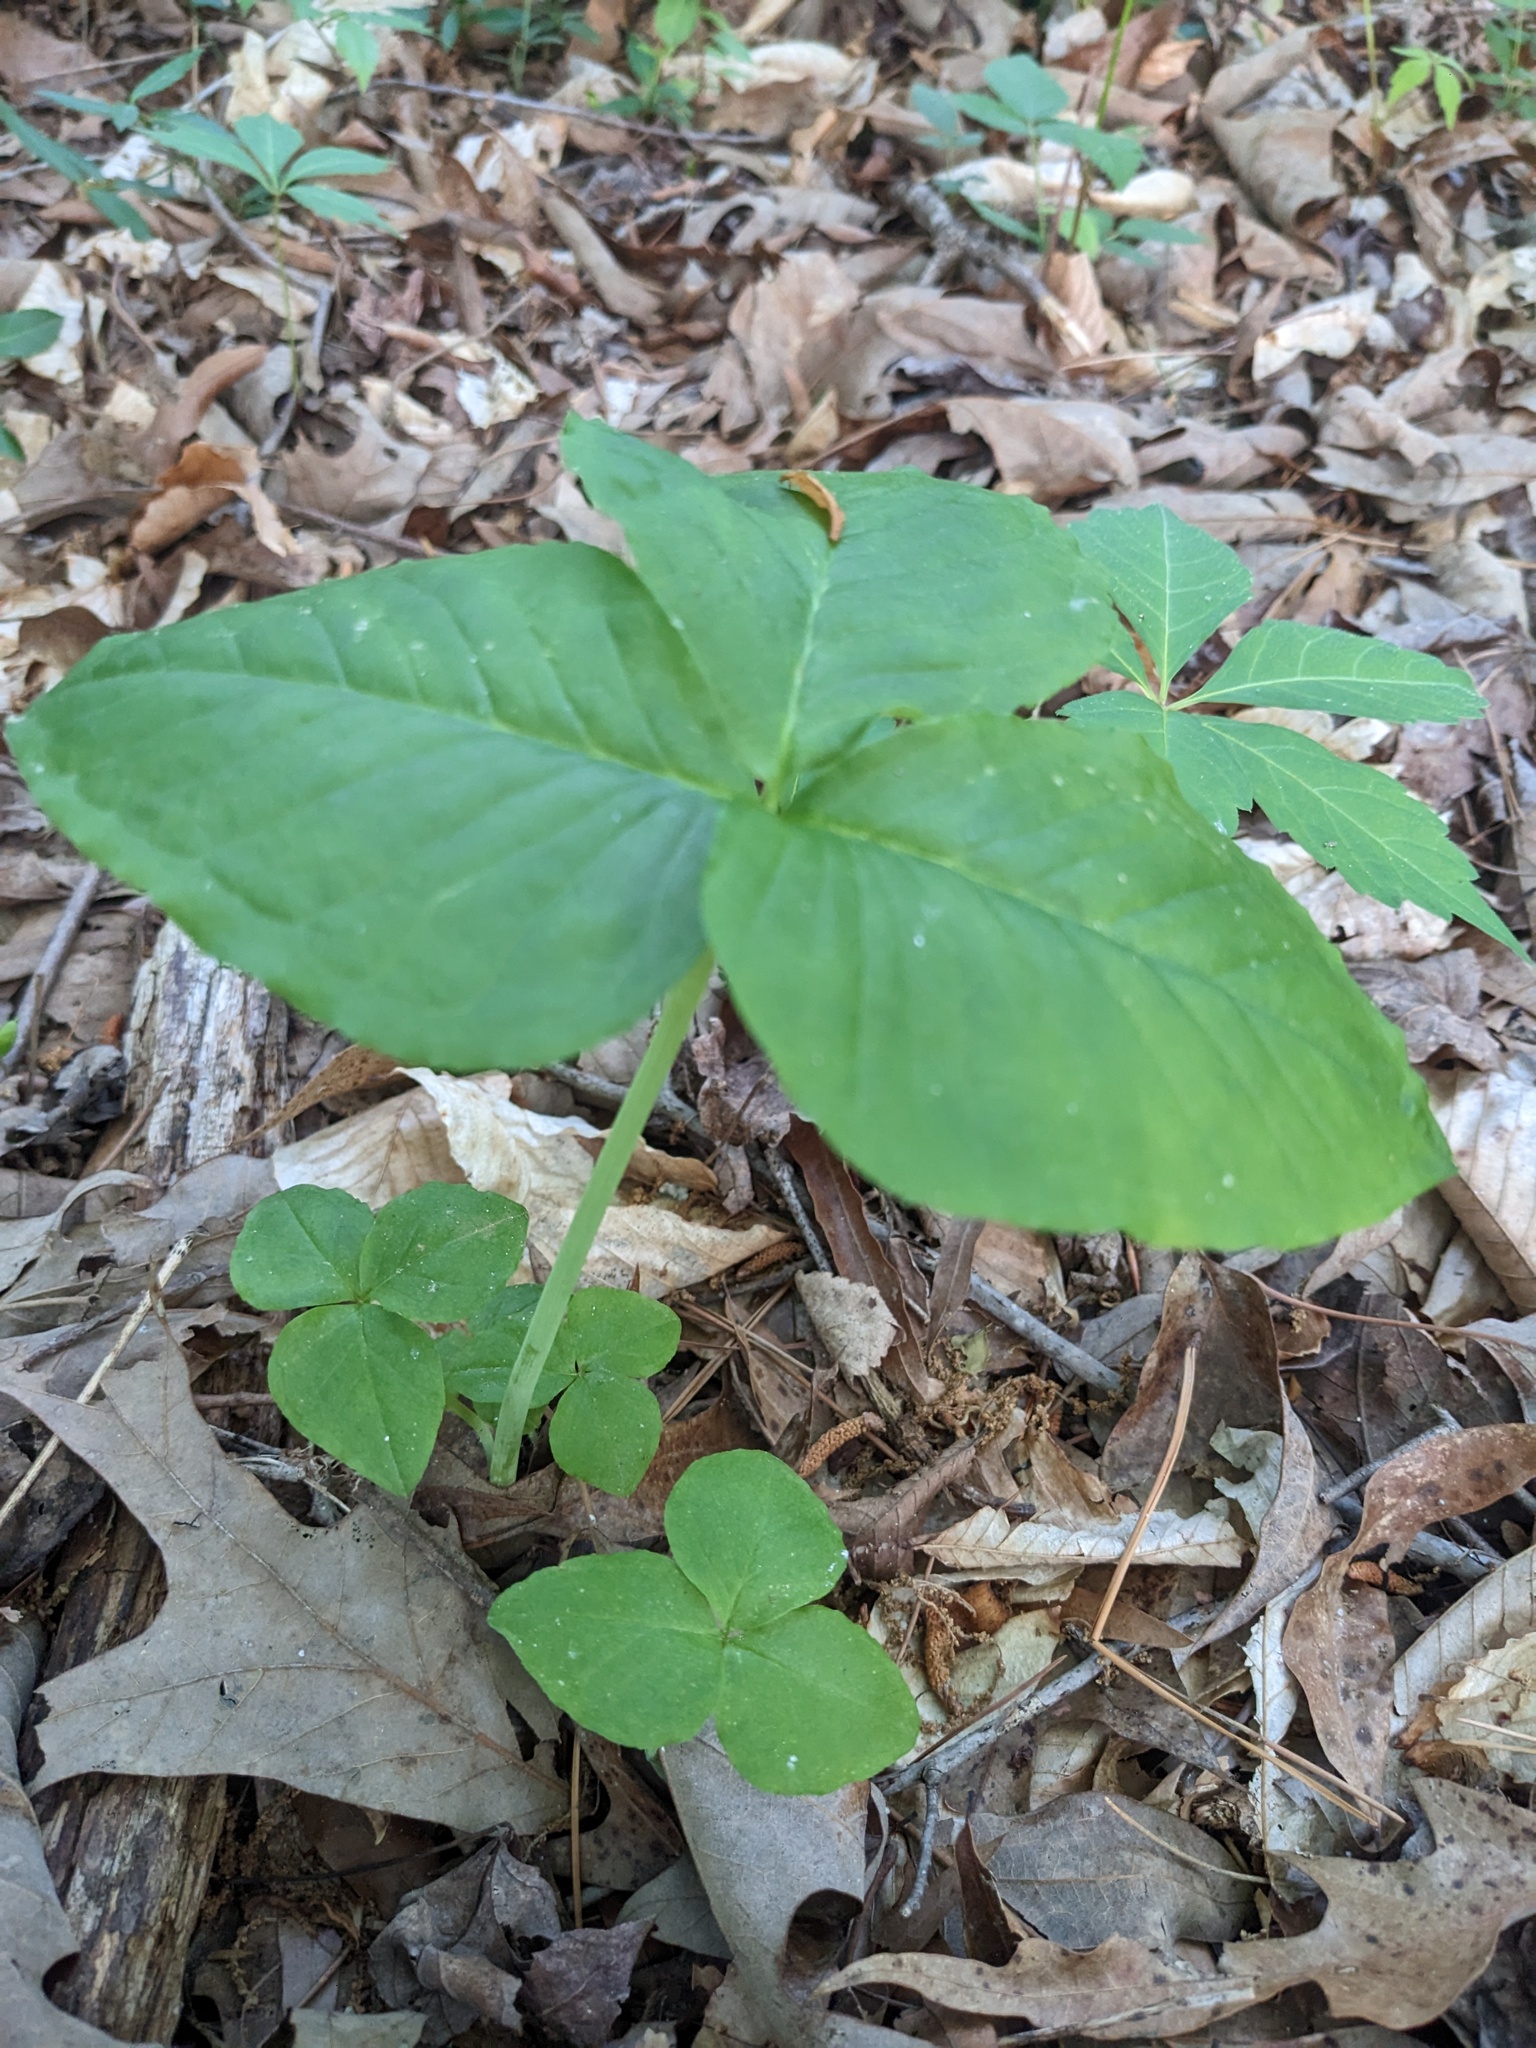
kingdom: Plantae
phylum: Tracheophyta
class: Liliopsida
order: Alismatales
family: Araceae
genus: Arisaema
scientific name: Arisaema triphyllum
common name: Jack-in-the-pulpit
